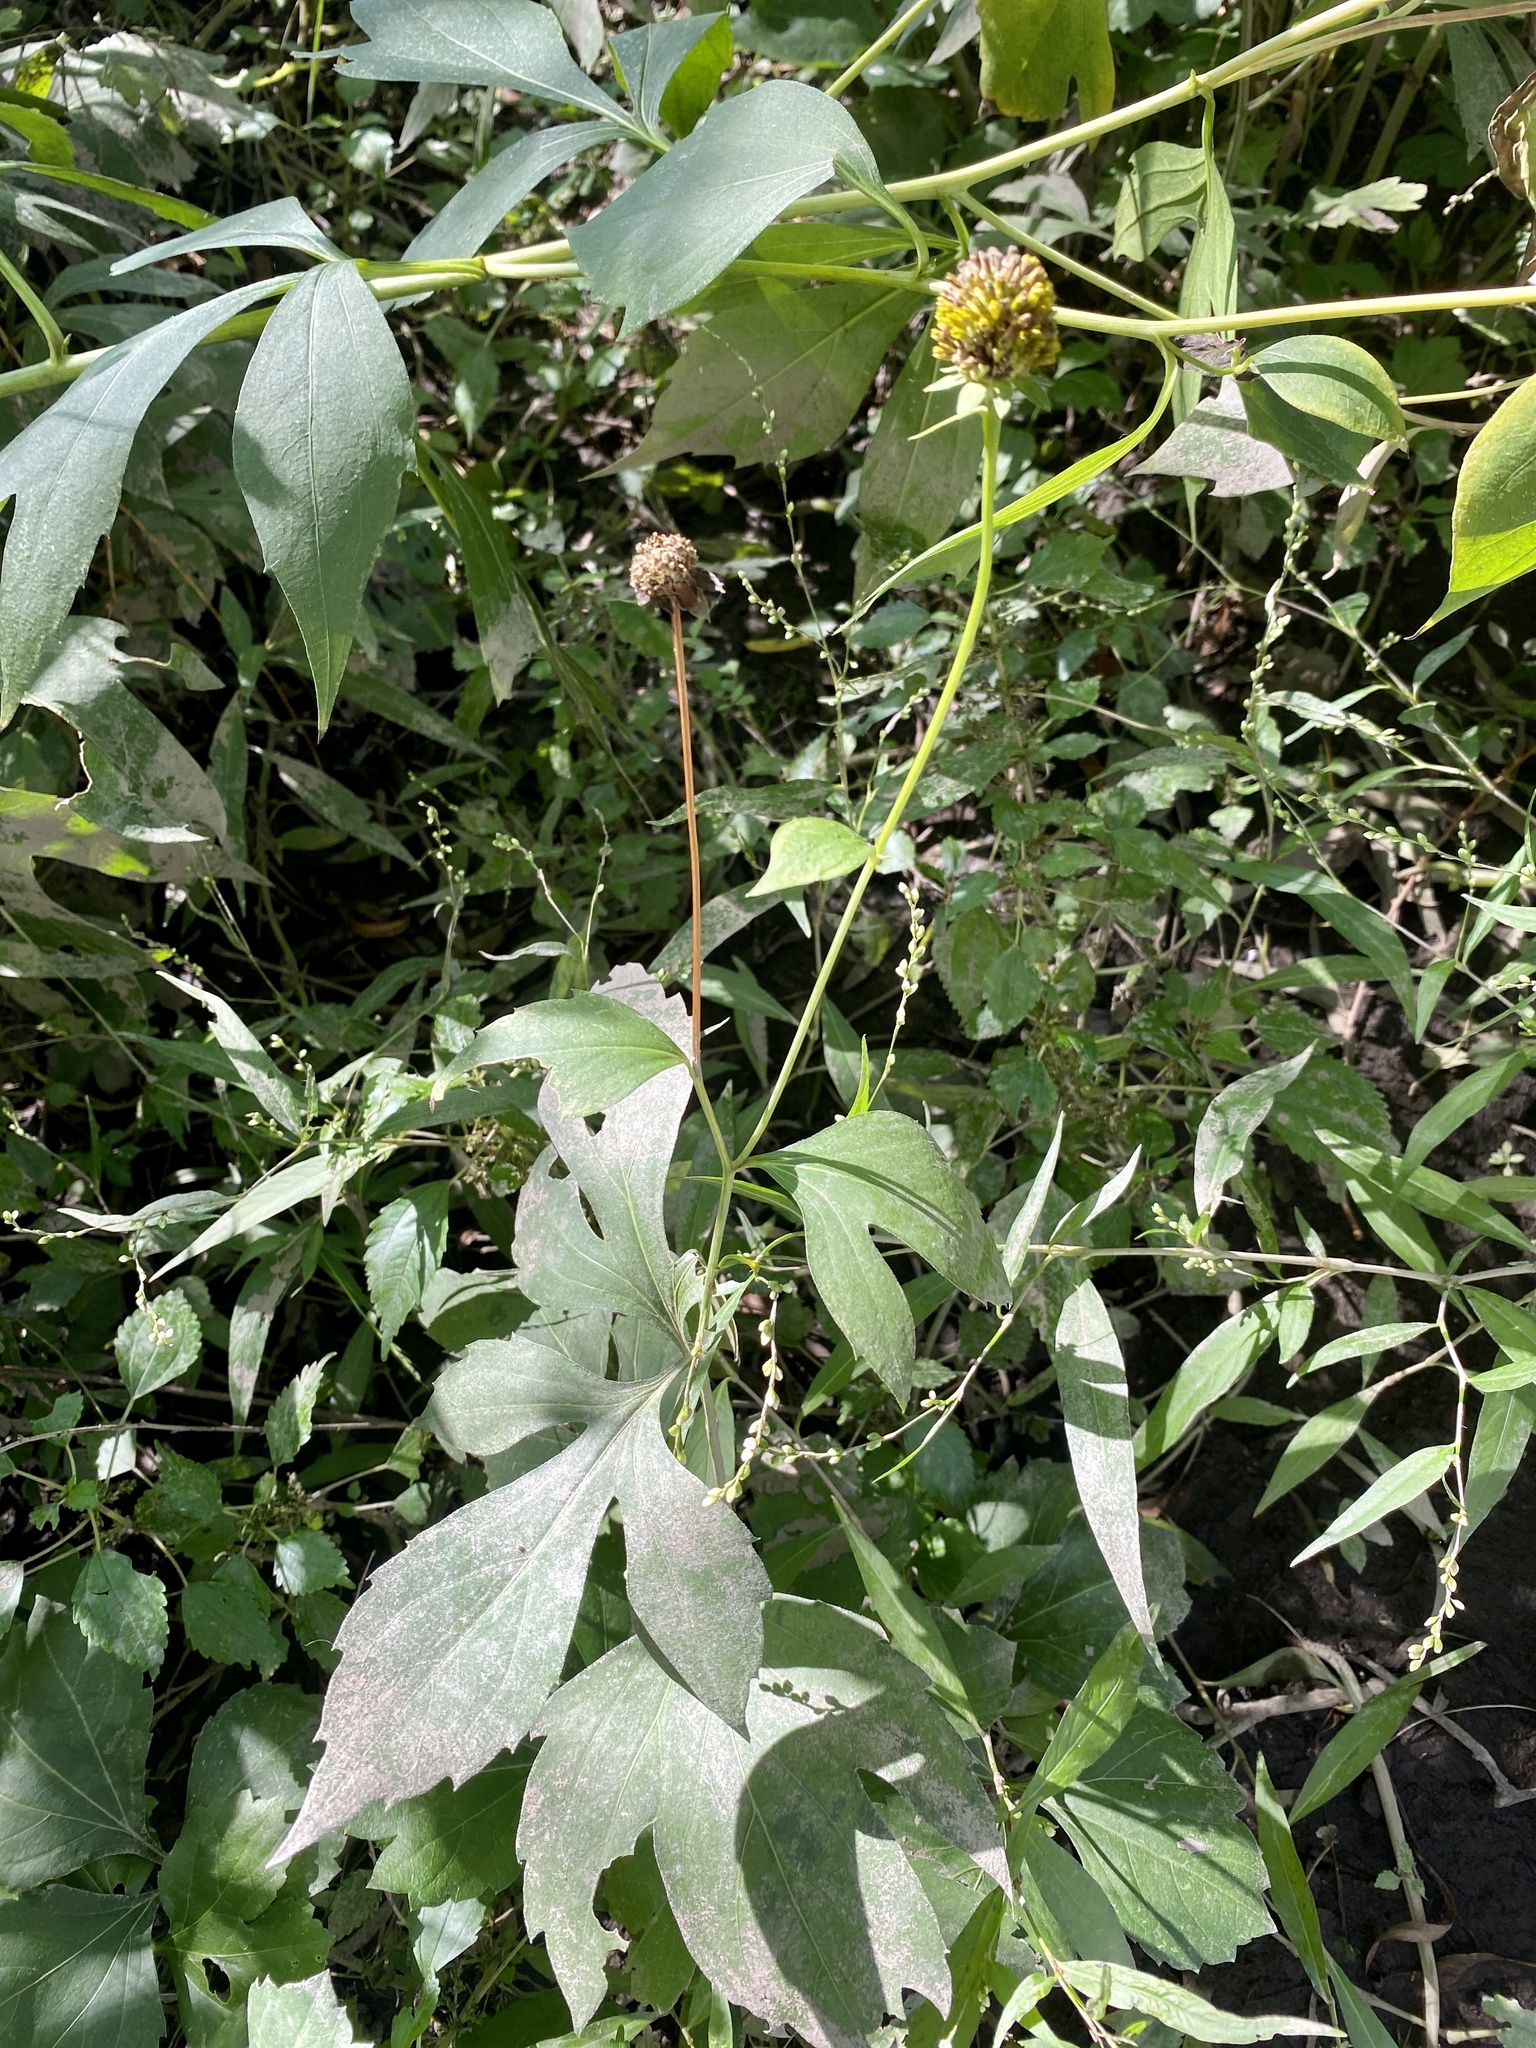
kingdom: Plantae
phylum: Tracheophyta
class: Magnoliopsida
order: Asterales
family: Asteraceae
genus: Rudbeckia
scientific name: Rudbeckia laciniata
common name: Coneflower
